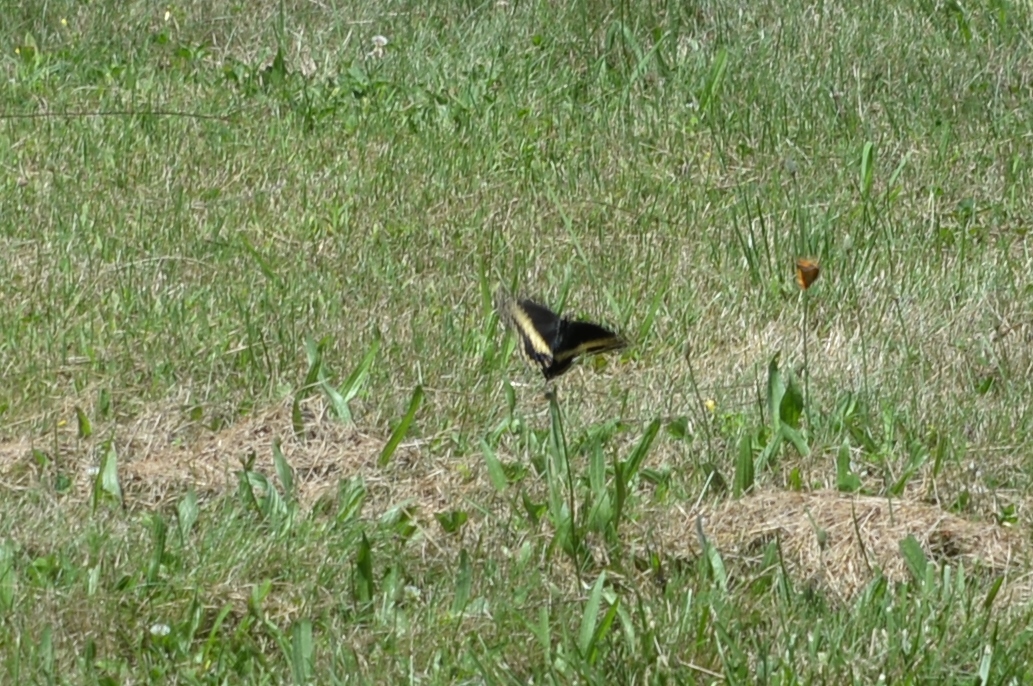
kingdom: Animalia
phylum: Arthropoda
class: Insecta
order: Lepidoptera
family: Papilionidae
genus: Papilio
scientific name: Papilio polyxenes
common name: Black swallowtail
